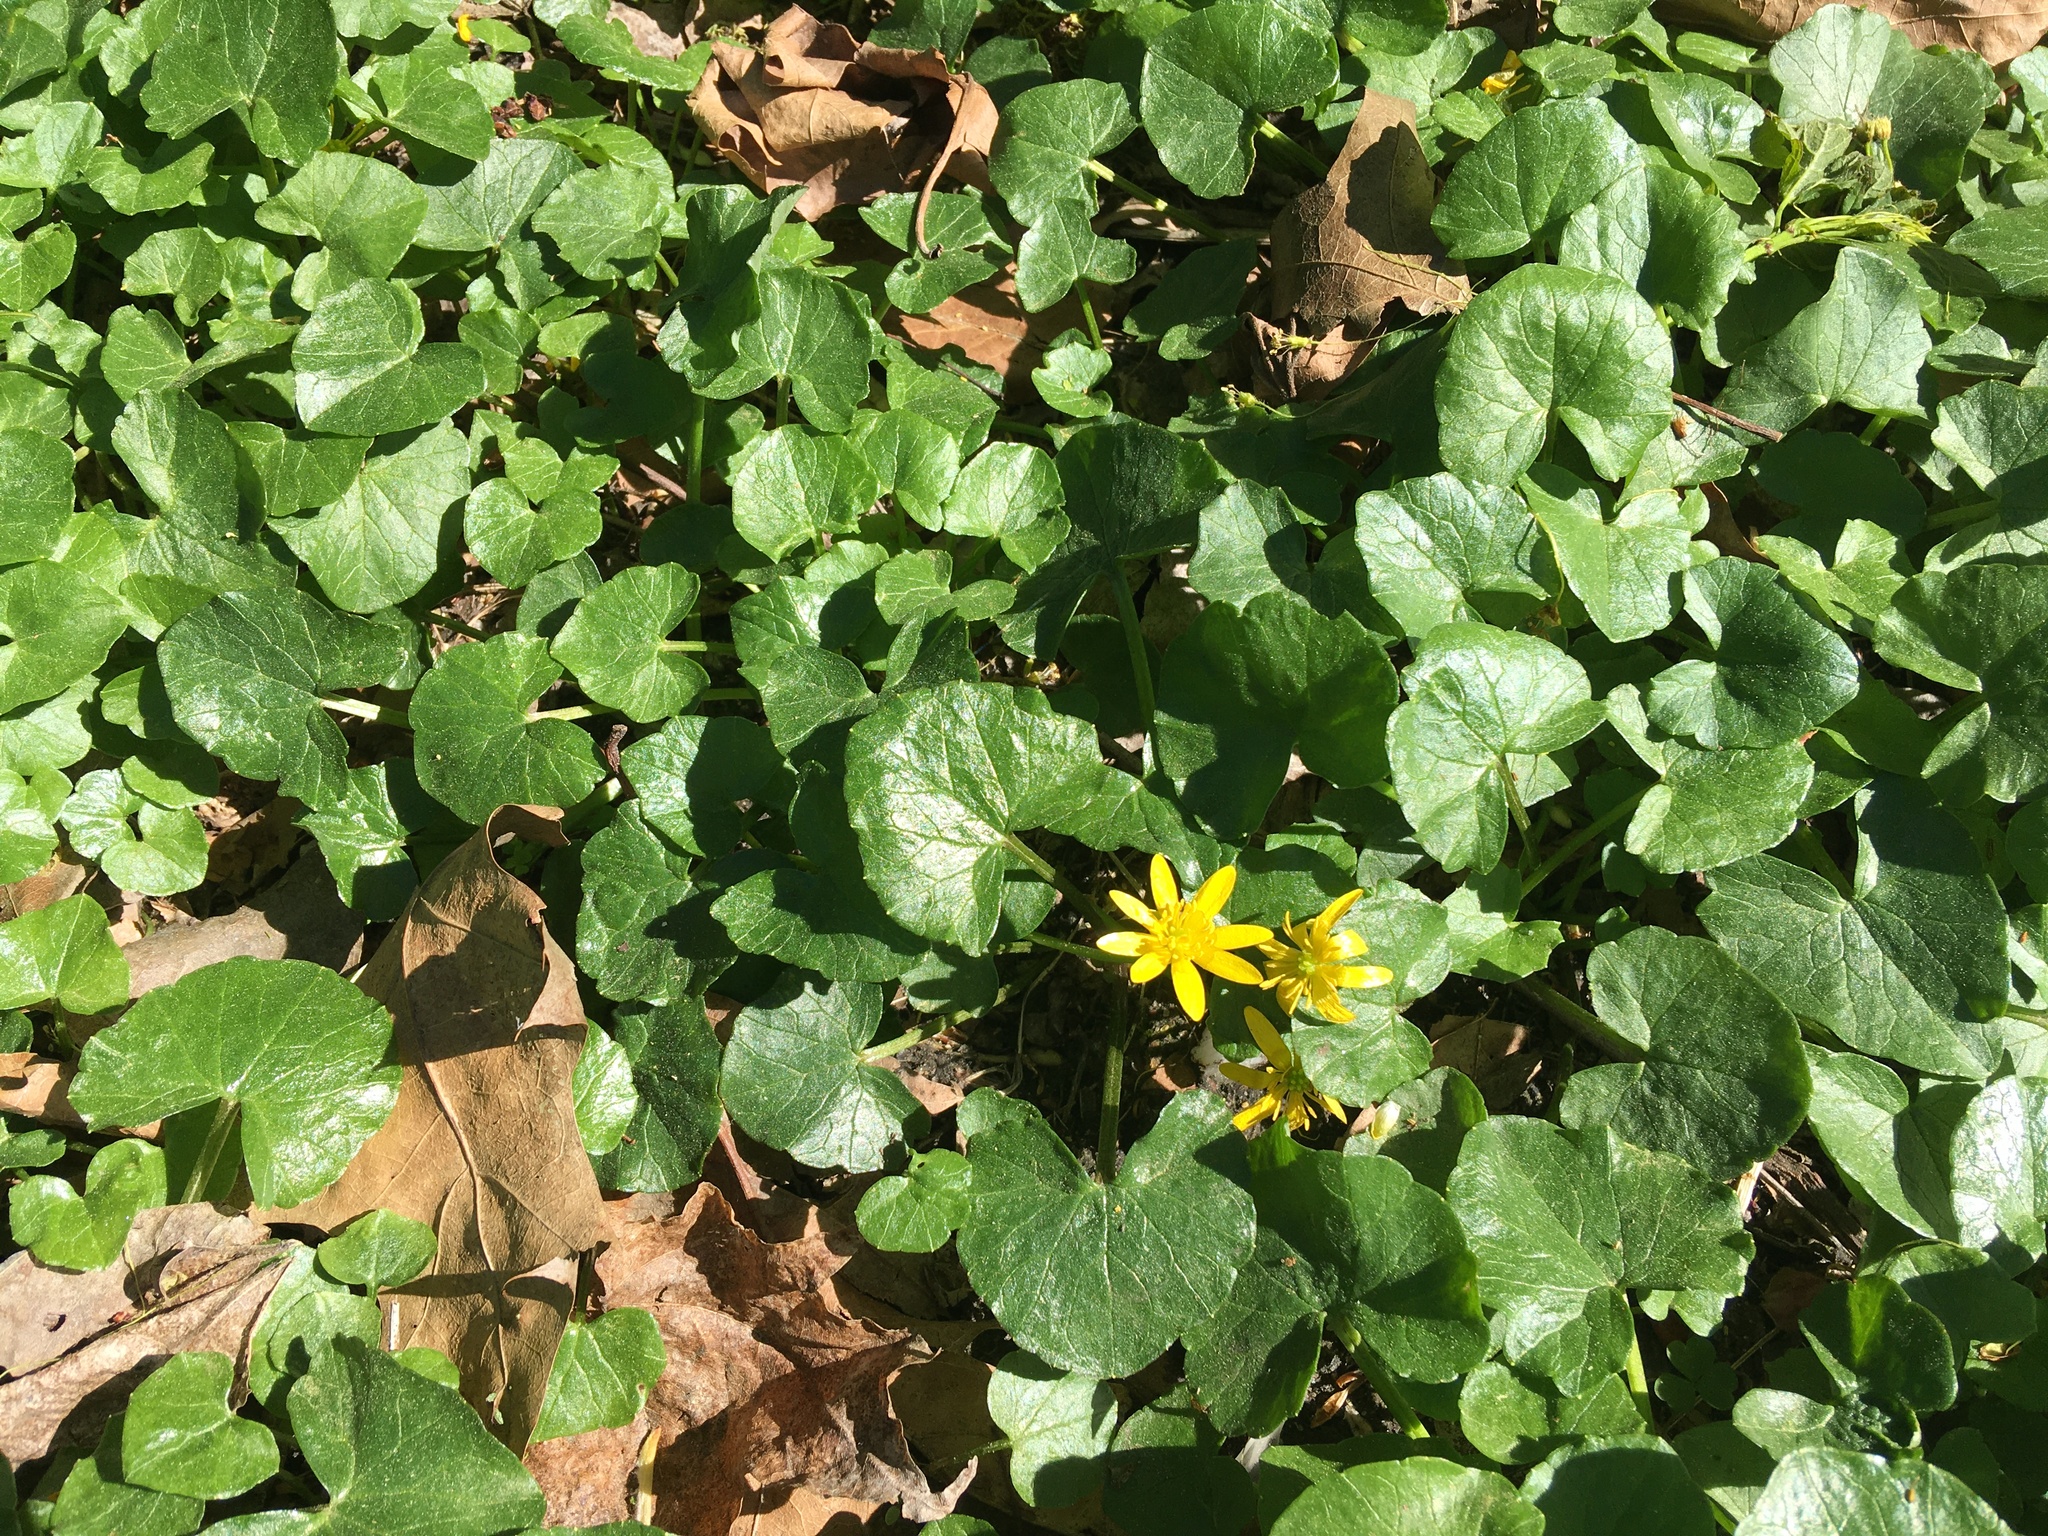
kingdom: Plantae
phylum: Tracheophyta
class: Magnoliopsida
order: Ranunculales
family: Ranunculaceae
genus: Ficaria
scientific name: Ficaria verna
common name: Lesser celandine
